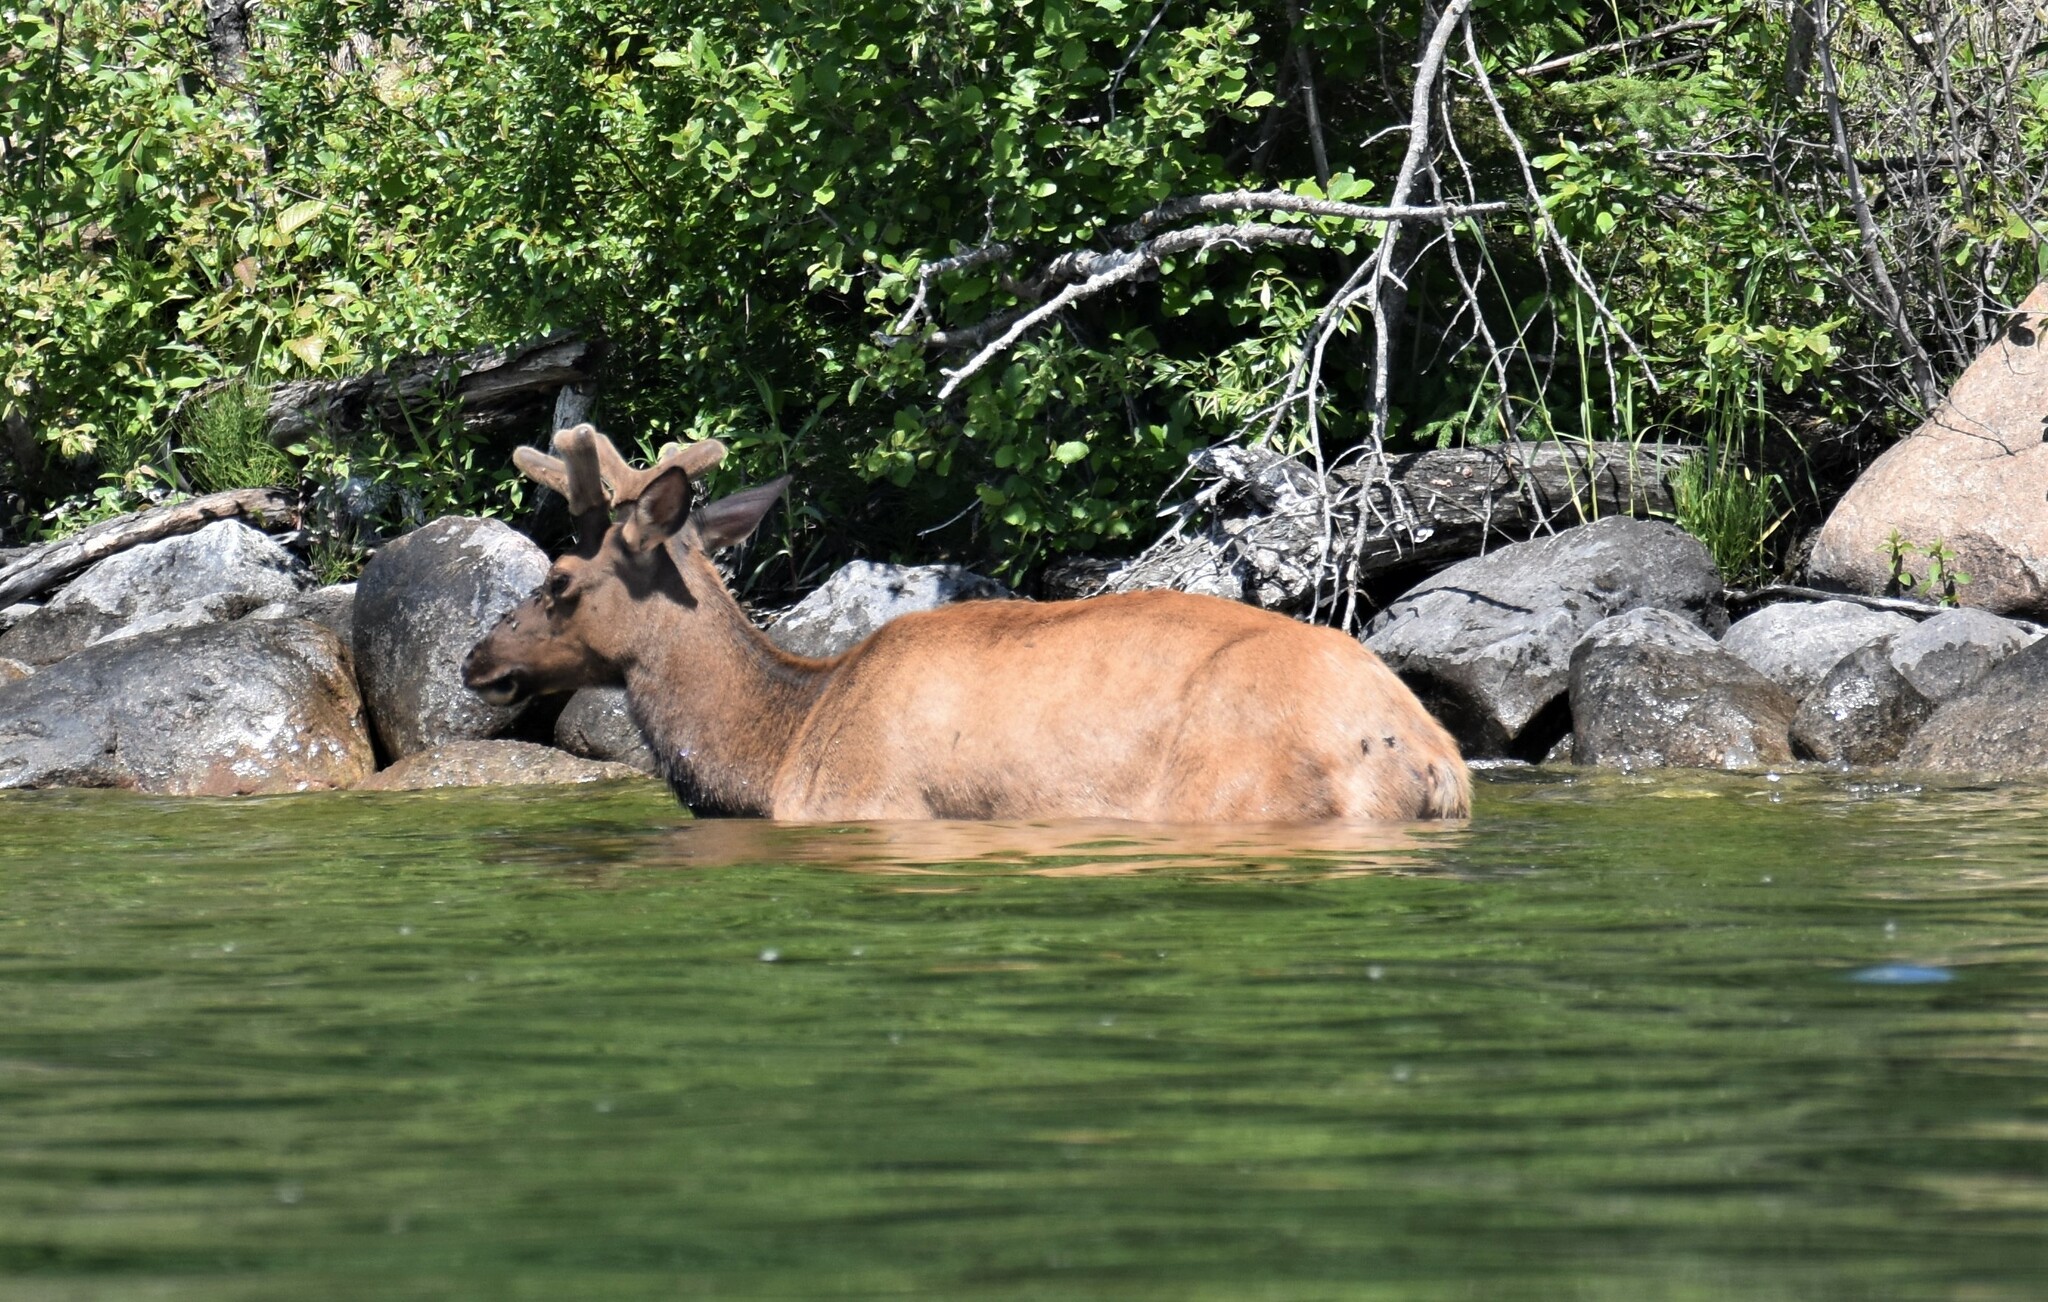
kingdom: Animalia
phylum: Chordata
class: Mammalia
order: Artiodactyla
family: Cervidae
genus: Cervus
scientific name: Cervus elaphus
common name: Red deer
